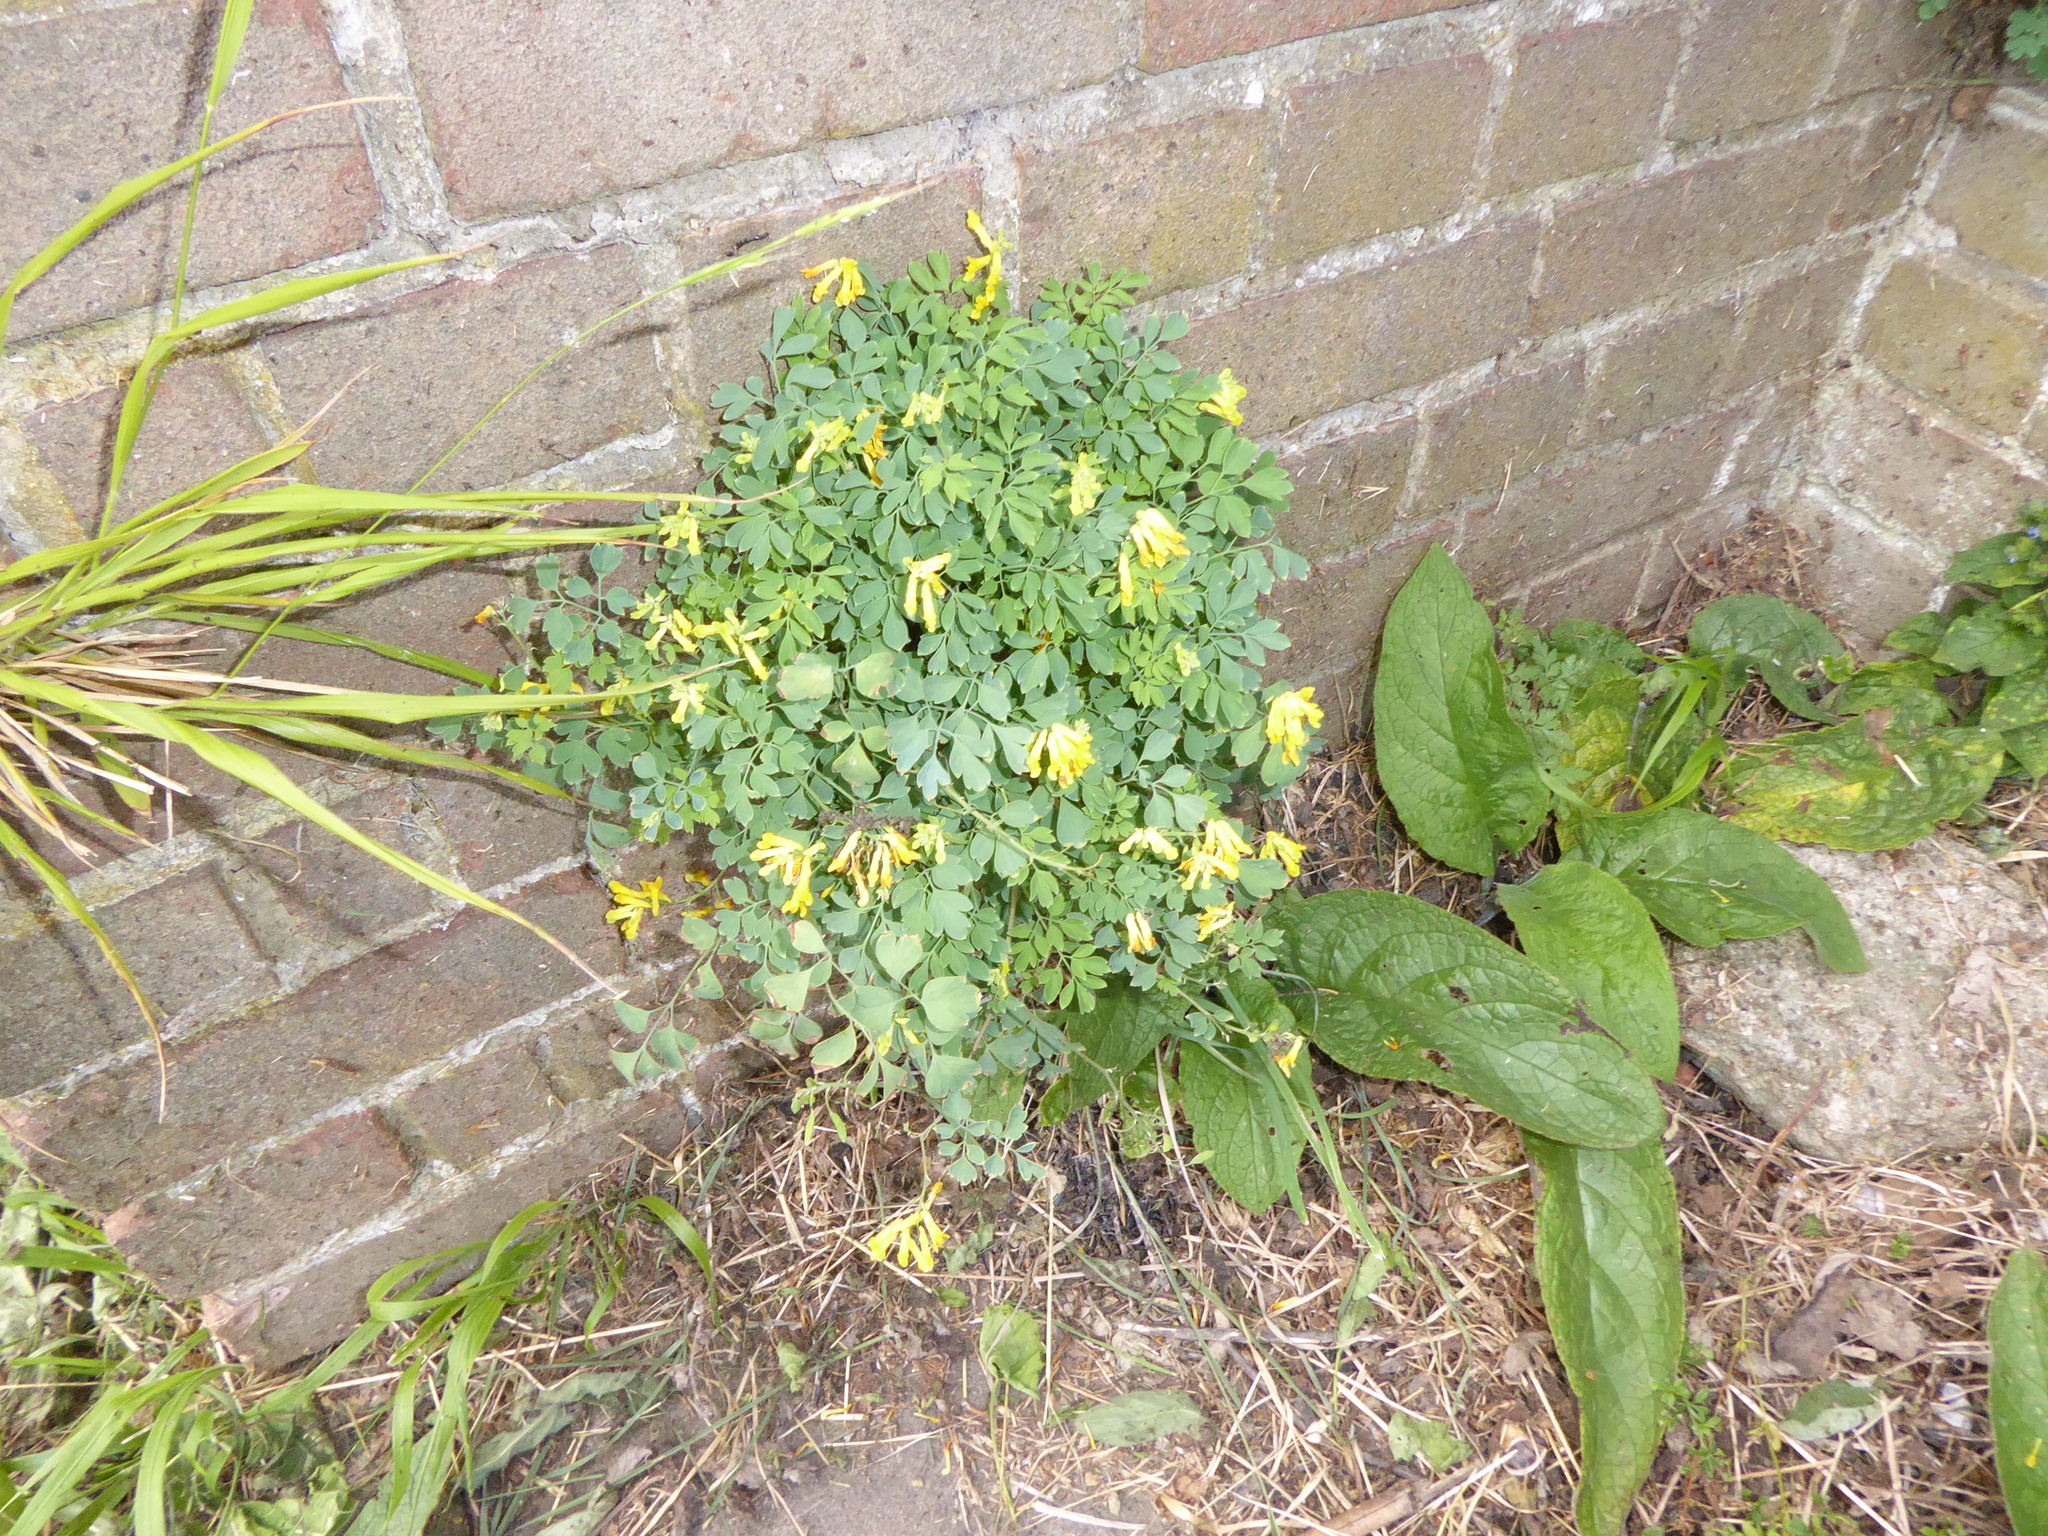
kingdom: Plantae
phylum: Tracheophyta
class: Magnoliopsida
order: Ranunculales
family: Papaveraceae
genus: Pseudofumaria
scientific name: Pseudofumaria lutea
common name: Yellow corydalis
